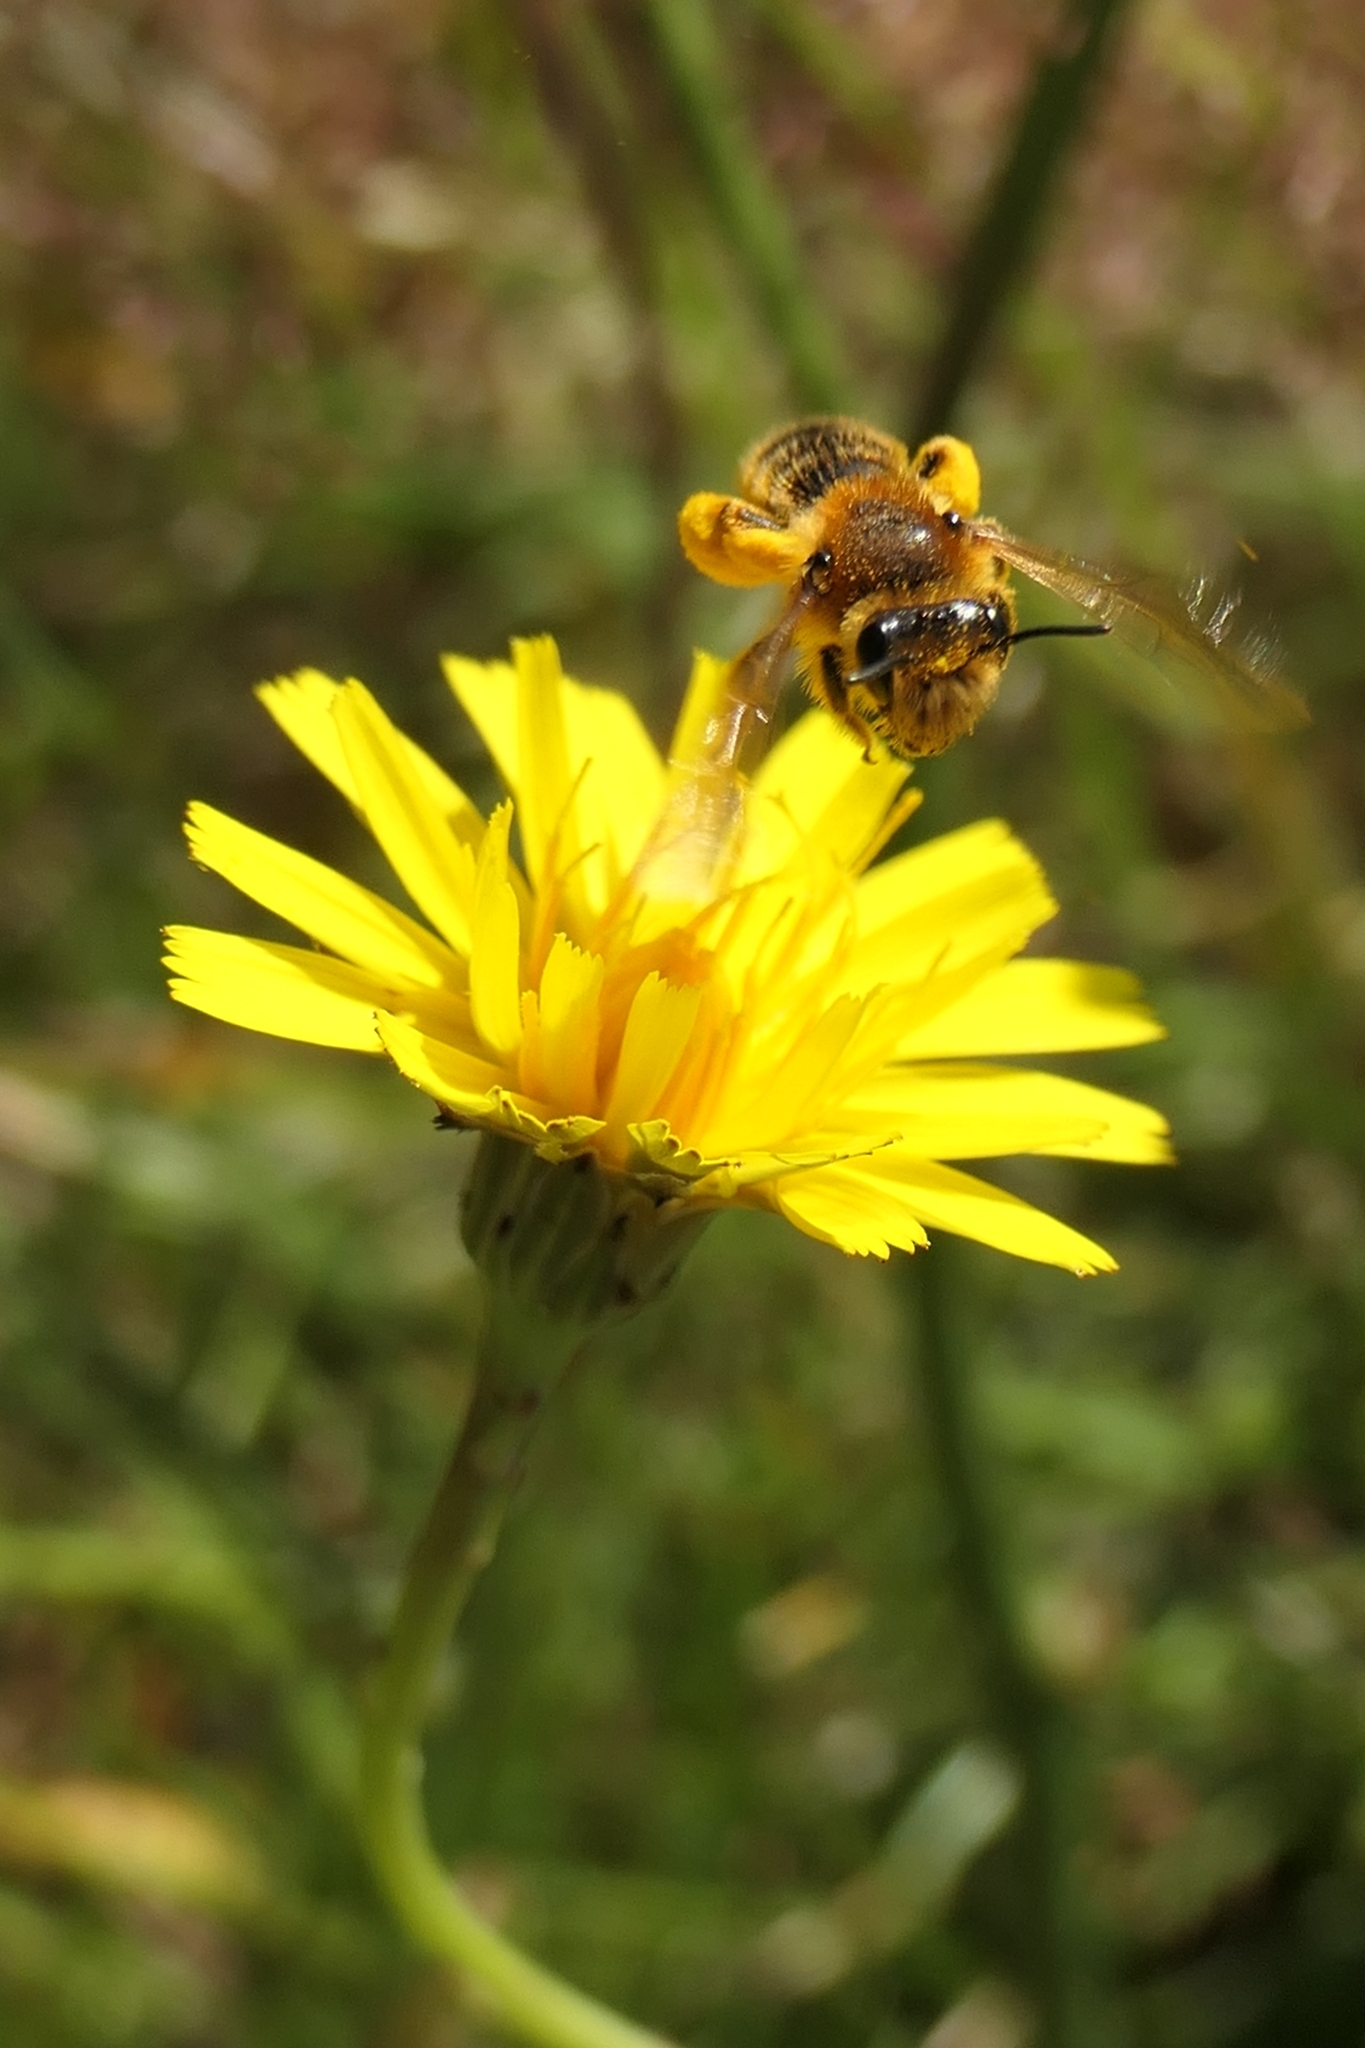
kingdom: Animalia
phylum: Arthropoda
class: Insecta
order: Hymenoptera
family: Colletidae
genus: Leioproctus
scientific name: Leioproctus fulvescens
